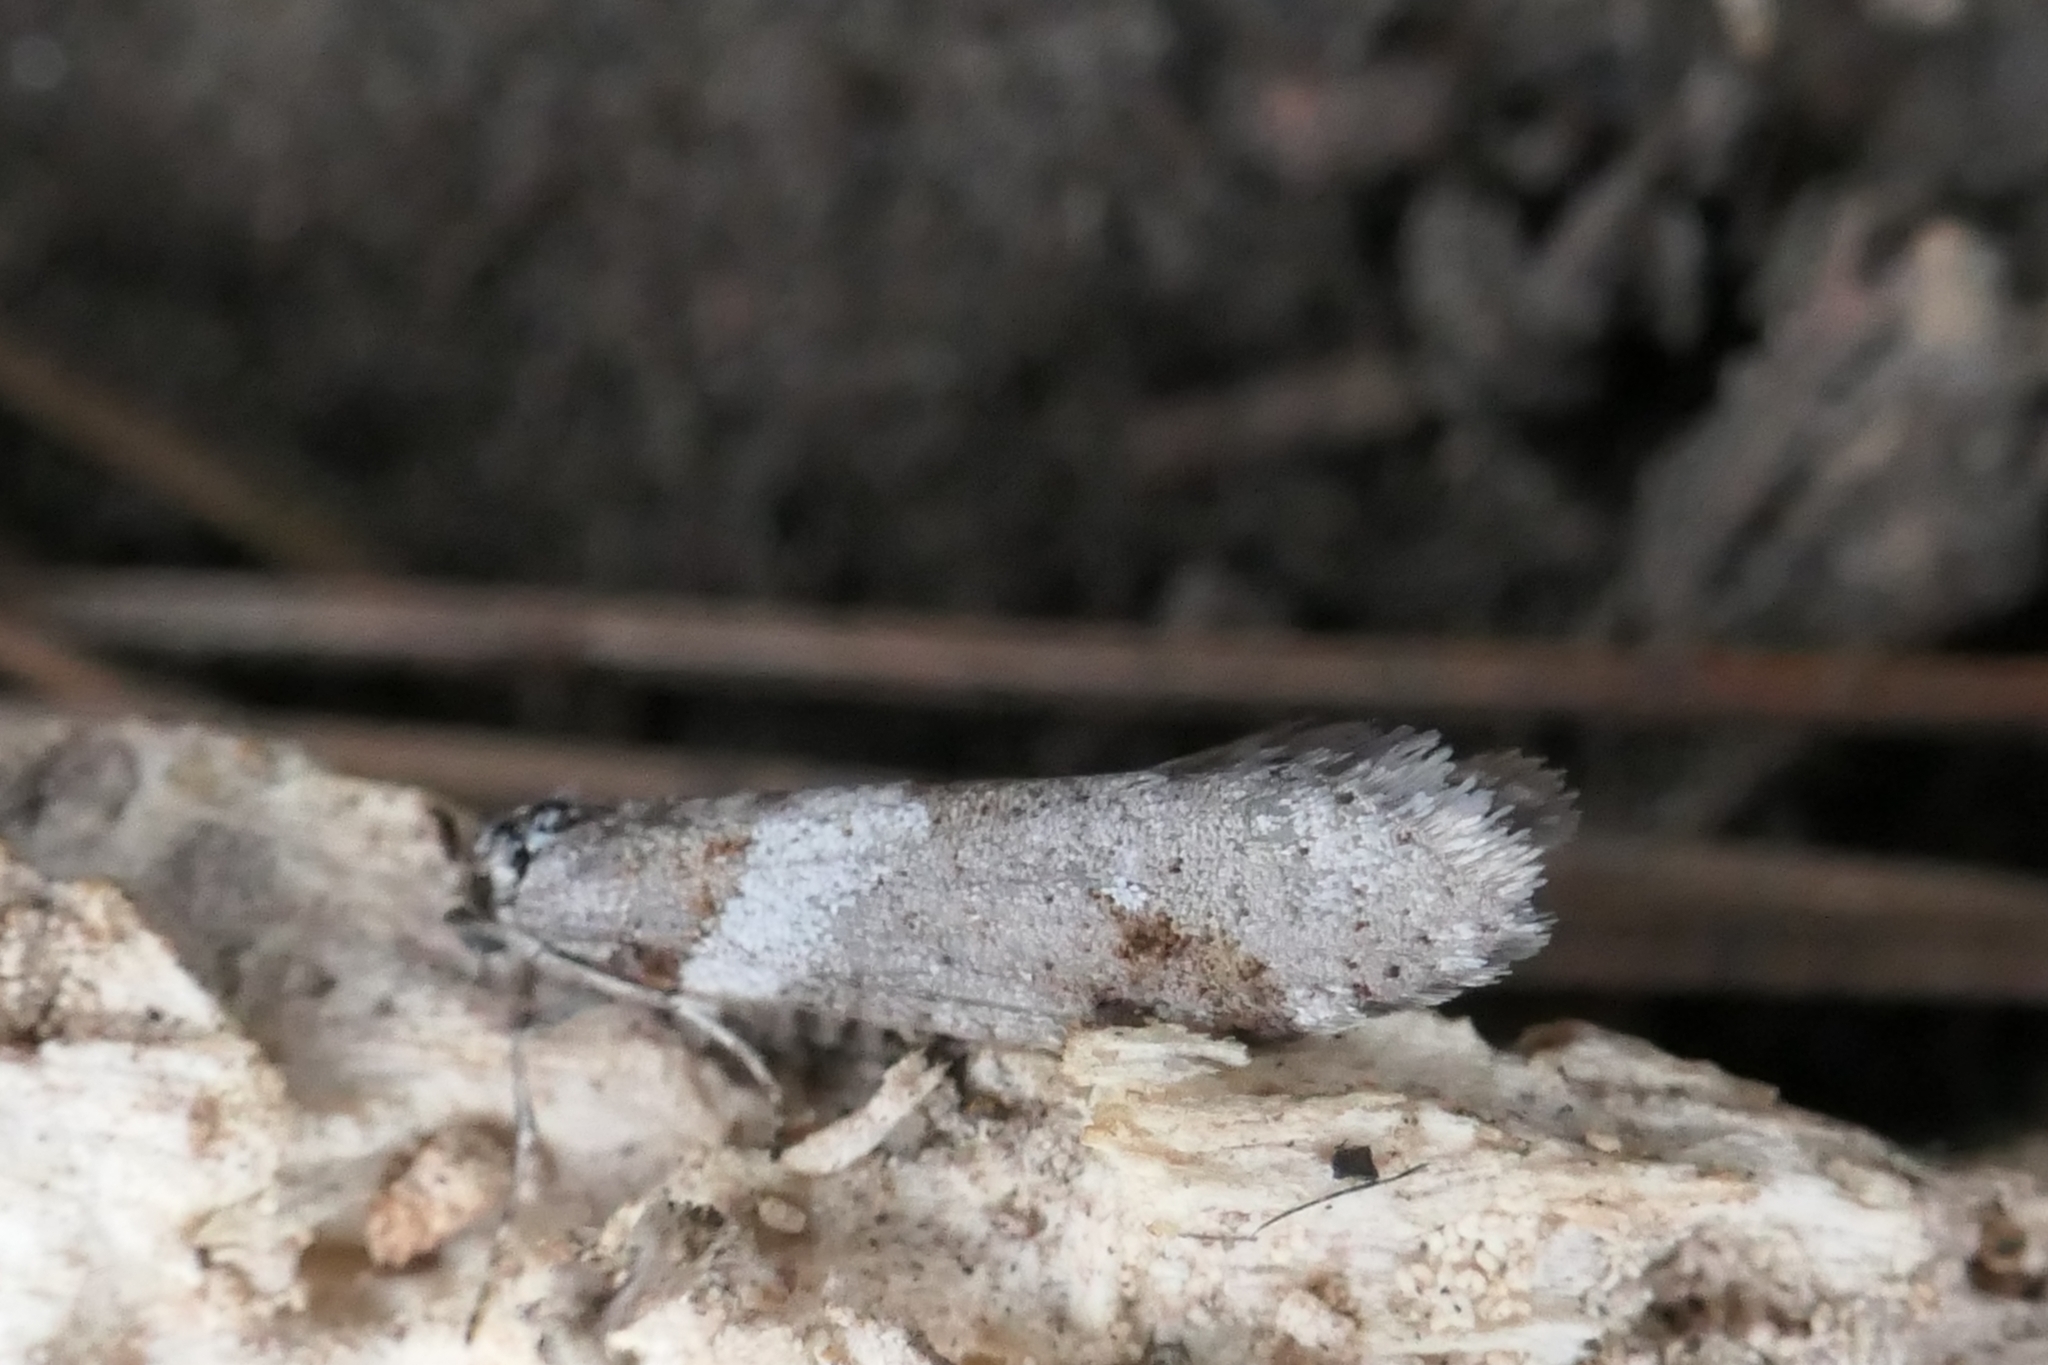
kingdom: Animalia
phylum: Arthropoda
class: Insecta
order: Lepidoptera
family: Psychidae
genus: Lepidoscia
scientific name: Lepidoscia heliochares
